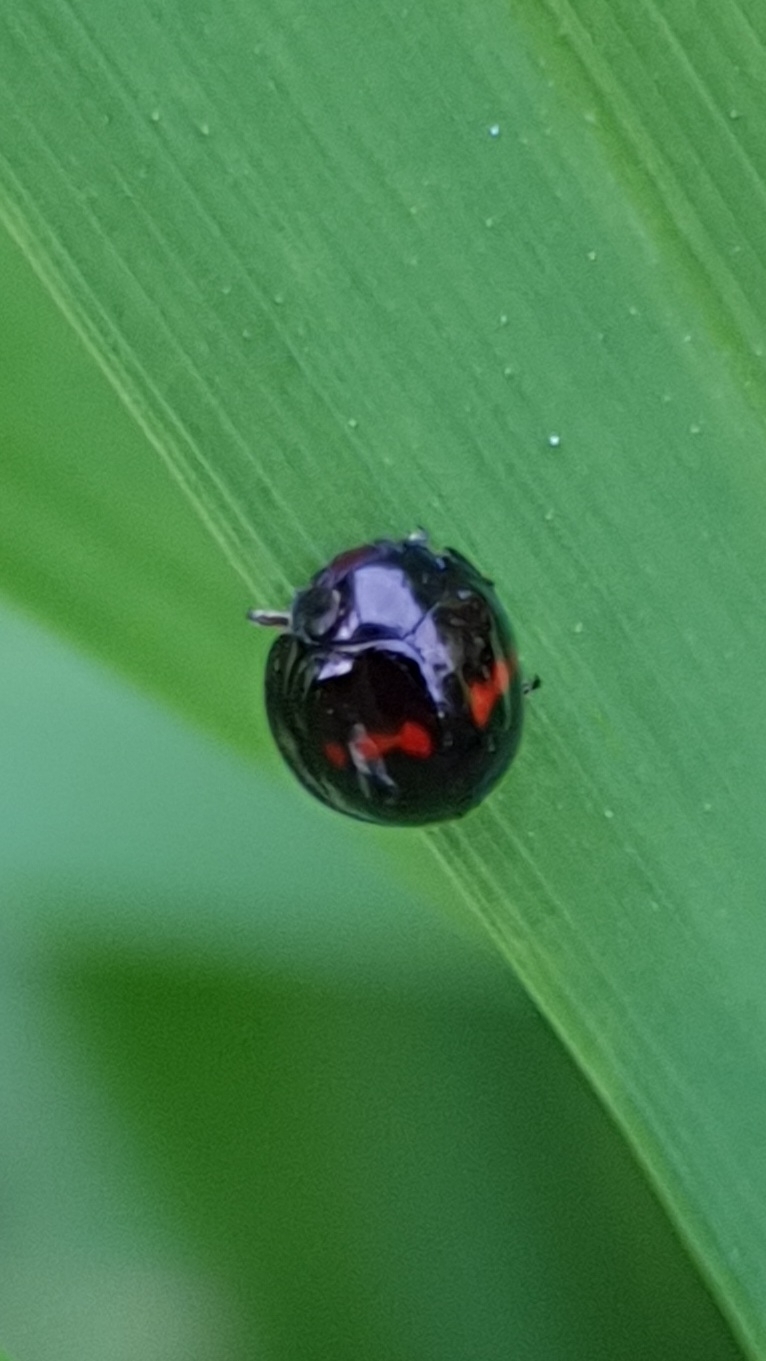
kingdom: Animalia
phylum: Arthropoda
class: Insecta
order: Coleoptera
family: Coccinellidae
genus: Chilocorus
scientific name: Chilocorus bipustulatus
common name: Heather ladybird
